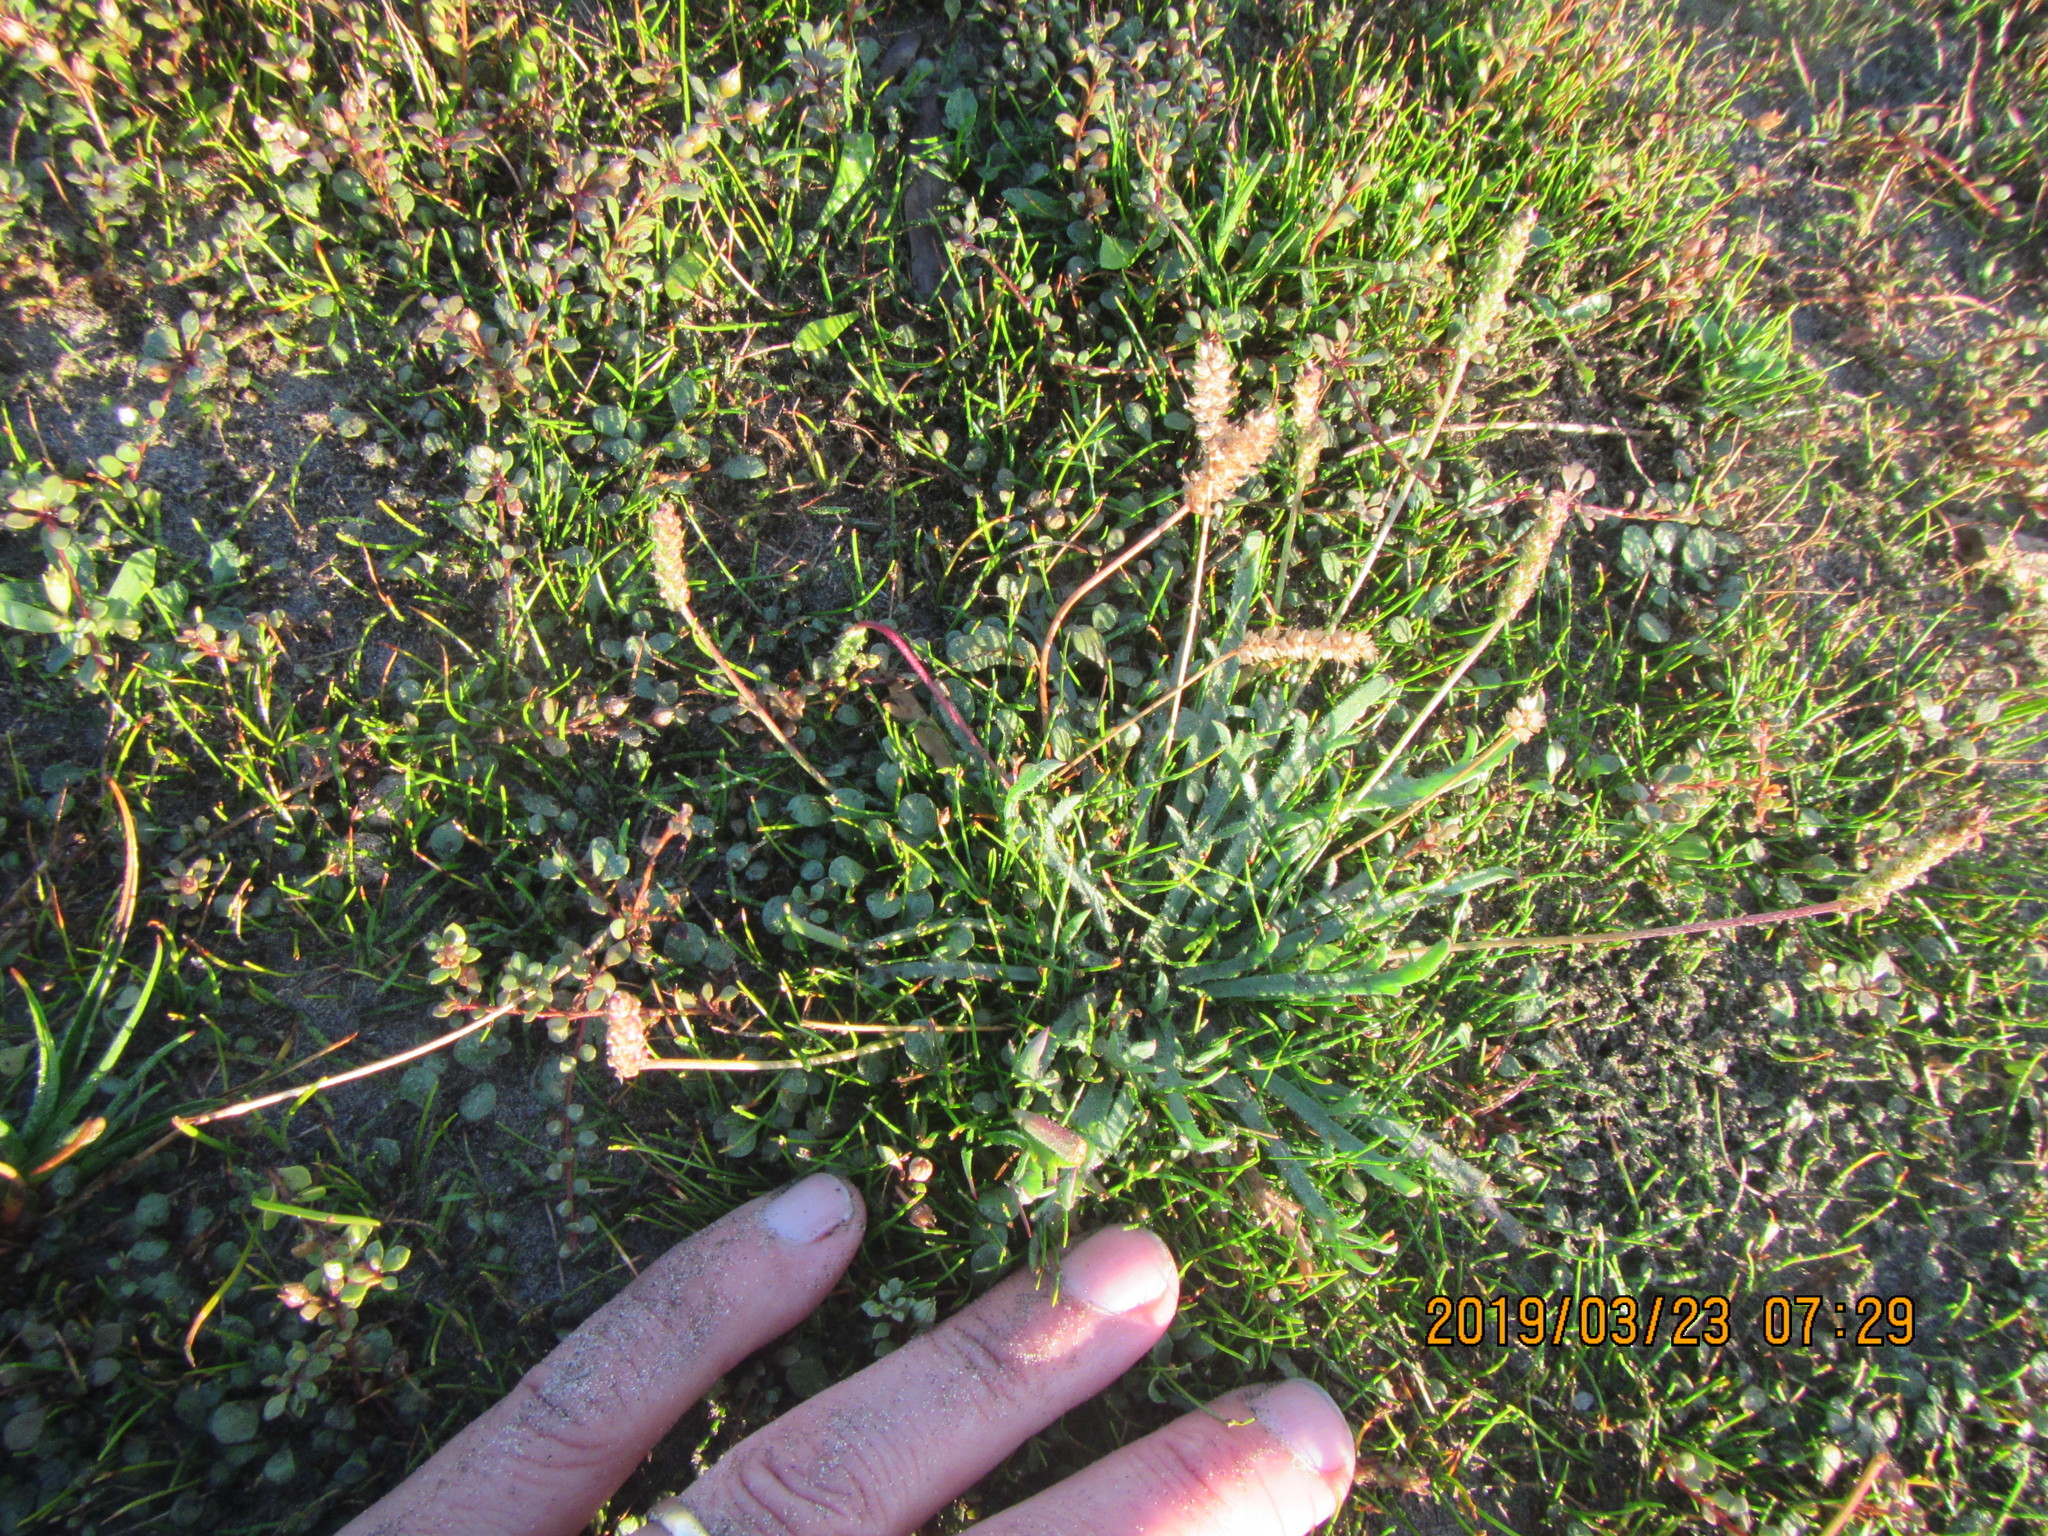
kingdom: Plantae
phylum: Tracheophyta
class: Magnoliopsida
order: Lamiales
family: Plantaginaceae
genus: Plantago
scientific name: Plantago coronopus
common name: Buck's-horn plantain
